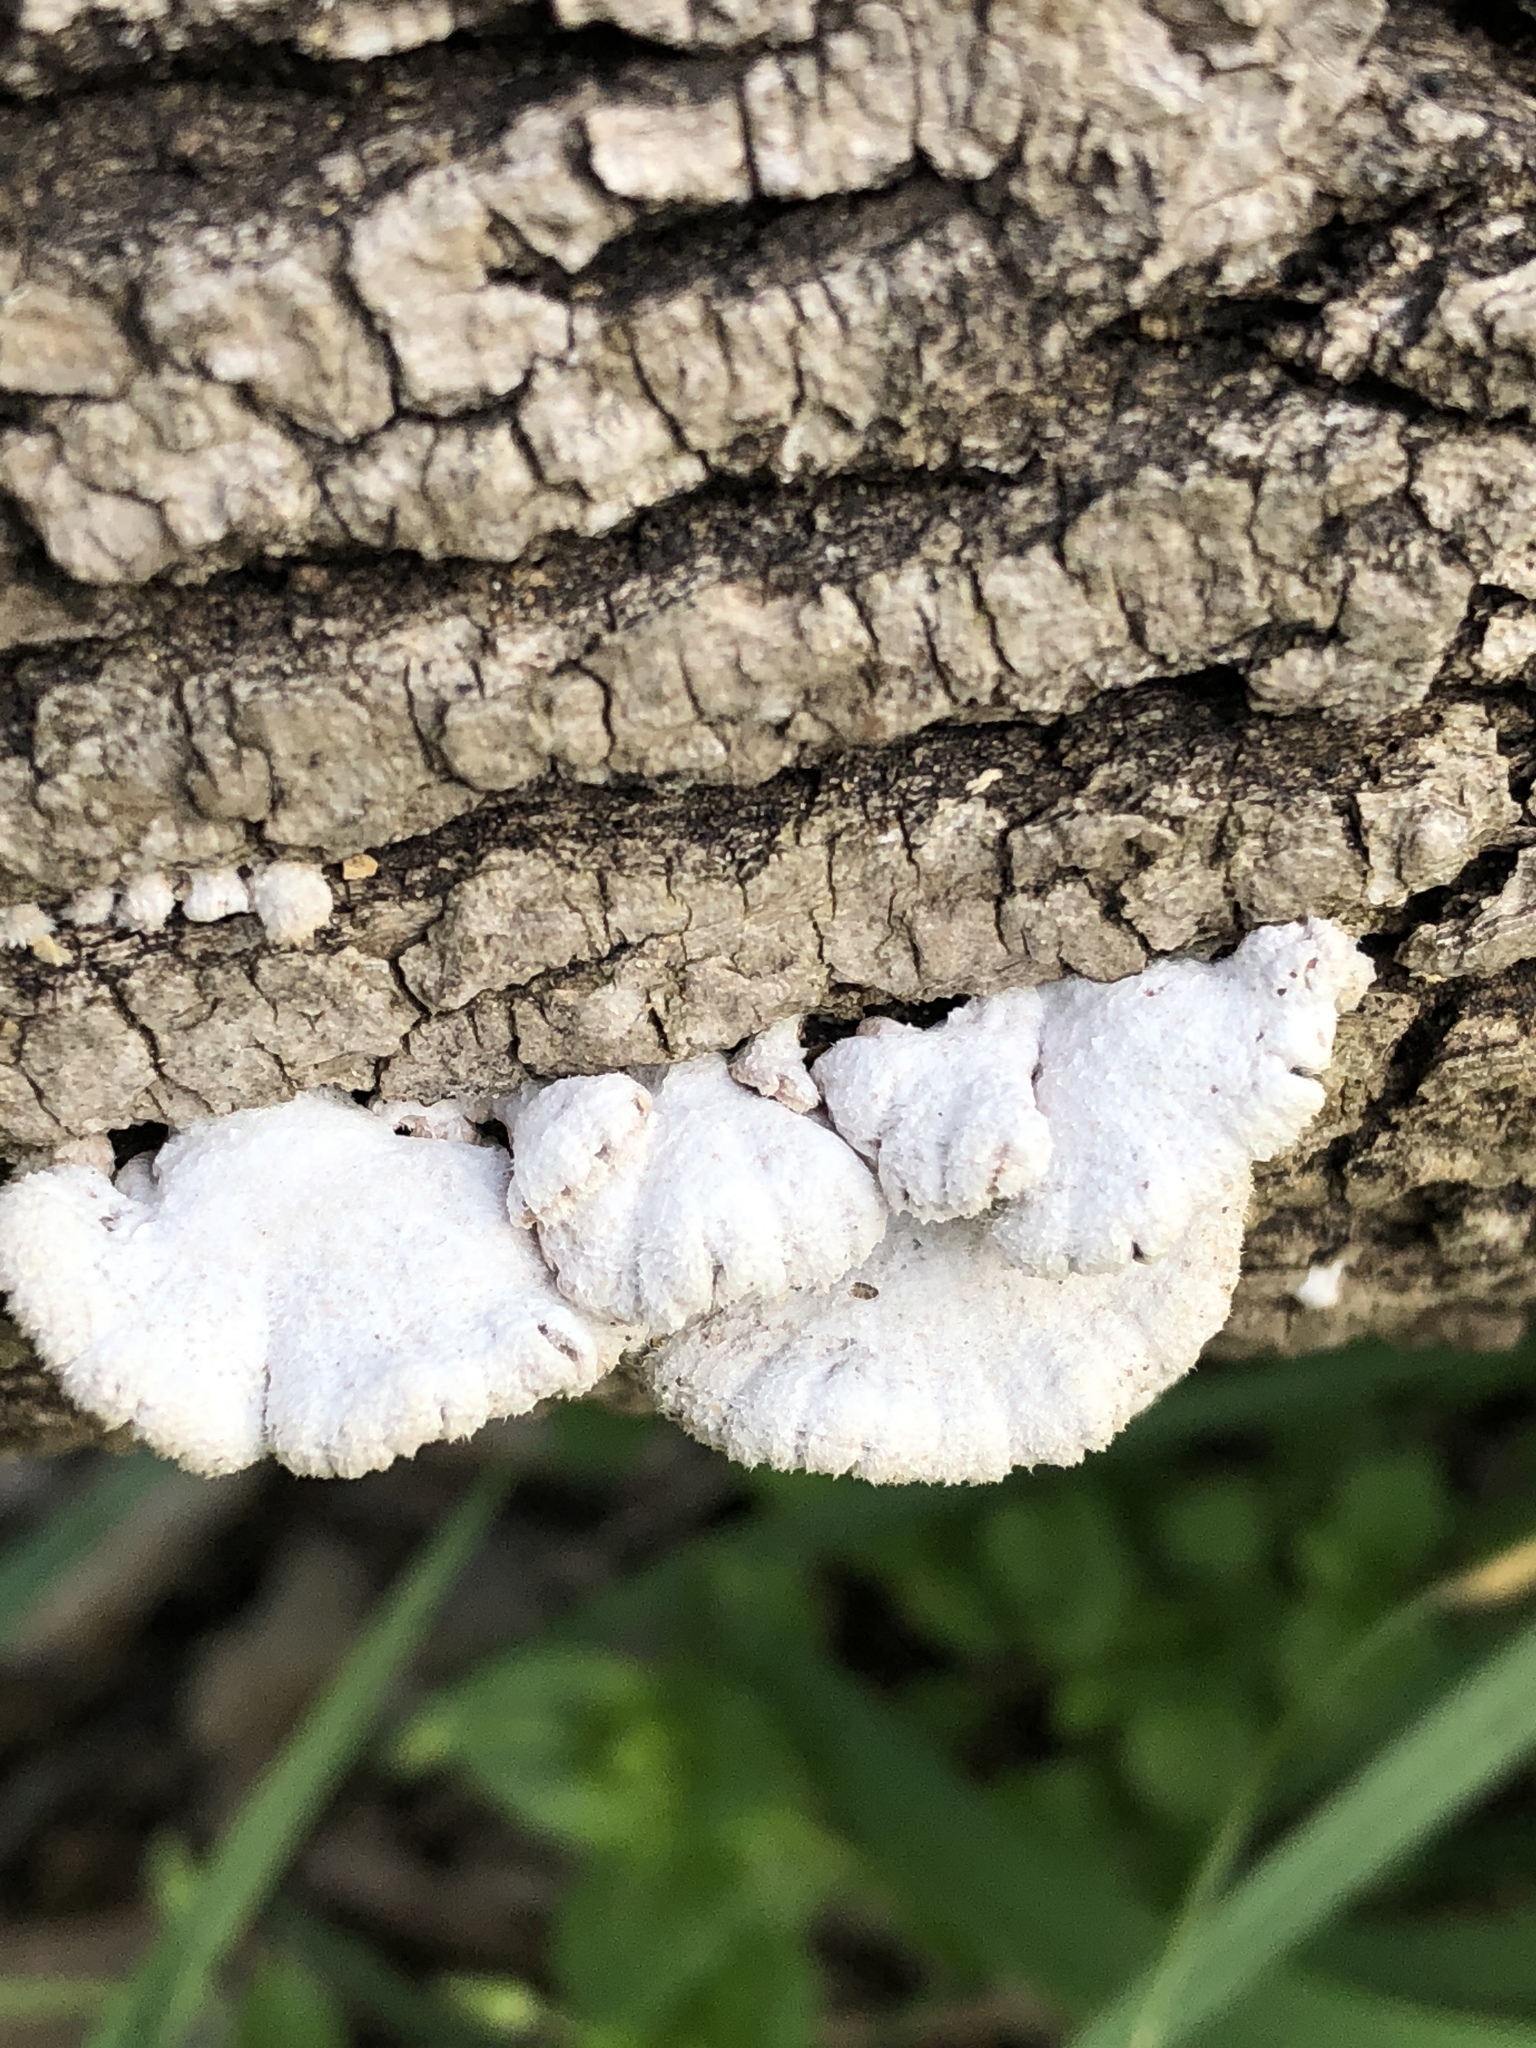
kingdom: Fungi
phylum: Basidiomycota
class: Agaricomycetes
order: Agaricales
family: Schizophyllaceae
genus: Schizophyllum
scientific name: Schizophyllum commune
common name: Common porecrust
